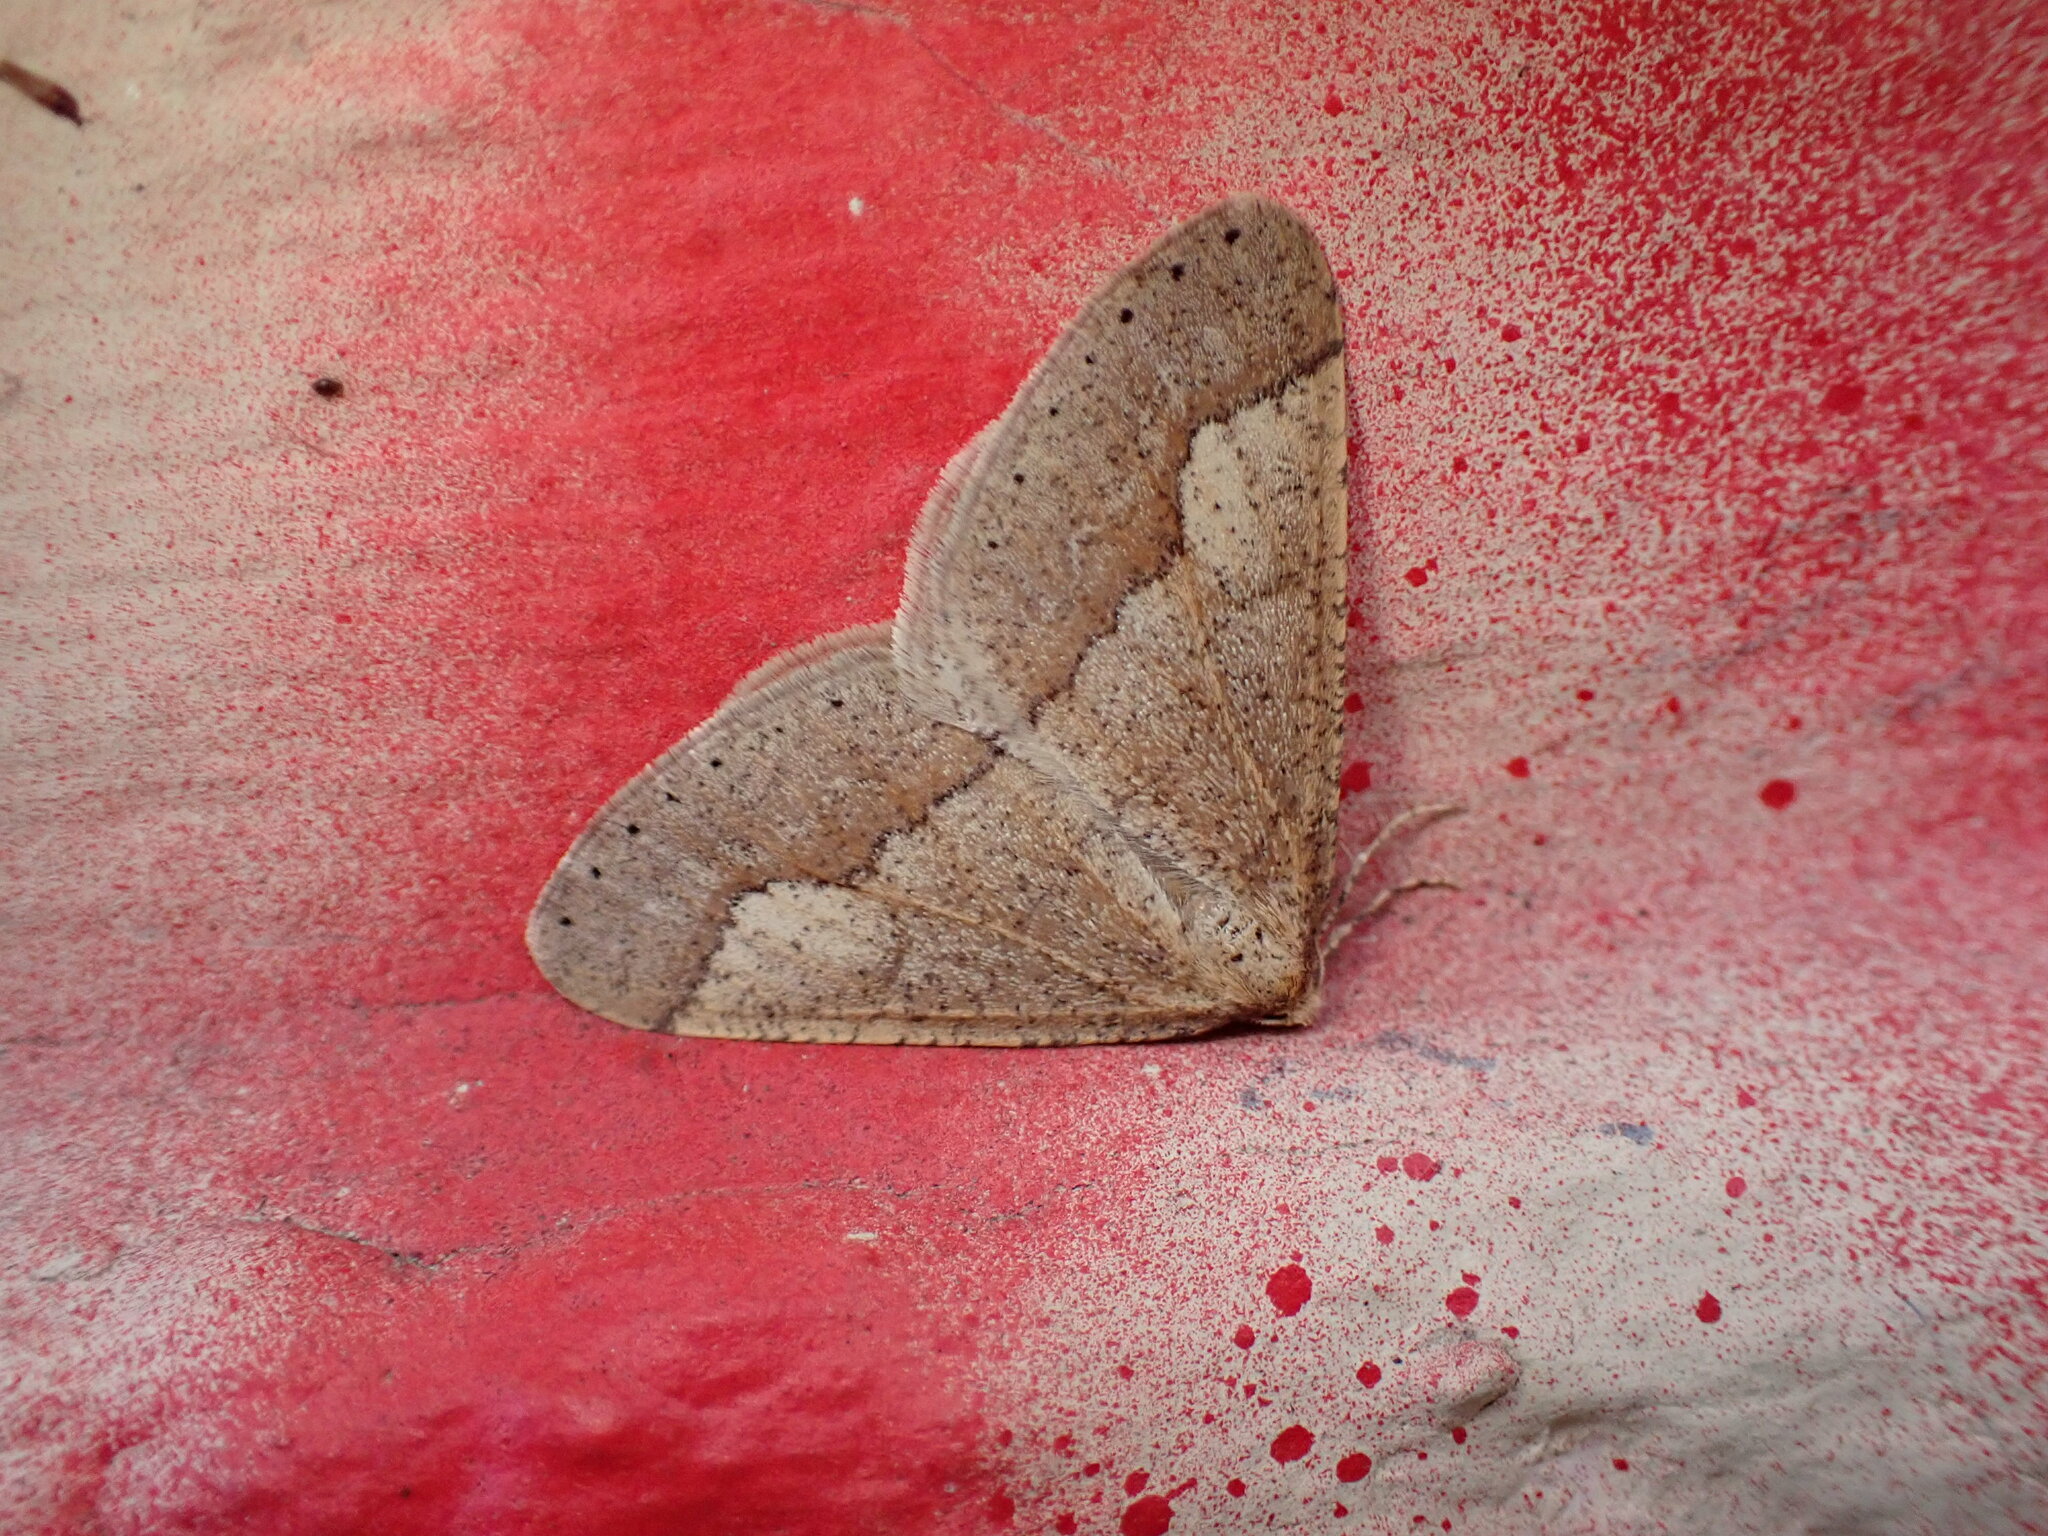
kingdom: Animalia
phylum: Arthropoda
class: Insecta
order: Lepidoptera
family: Geometridae
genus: Agriopis
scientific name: Agriopis marginaria
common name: Dotted border
